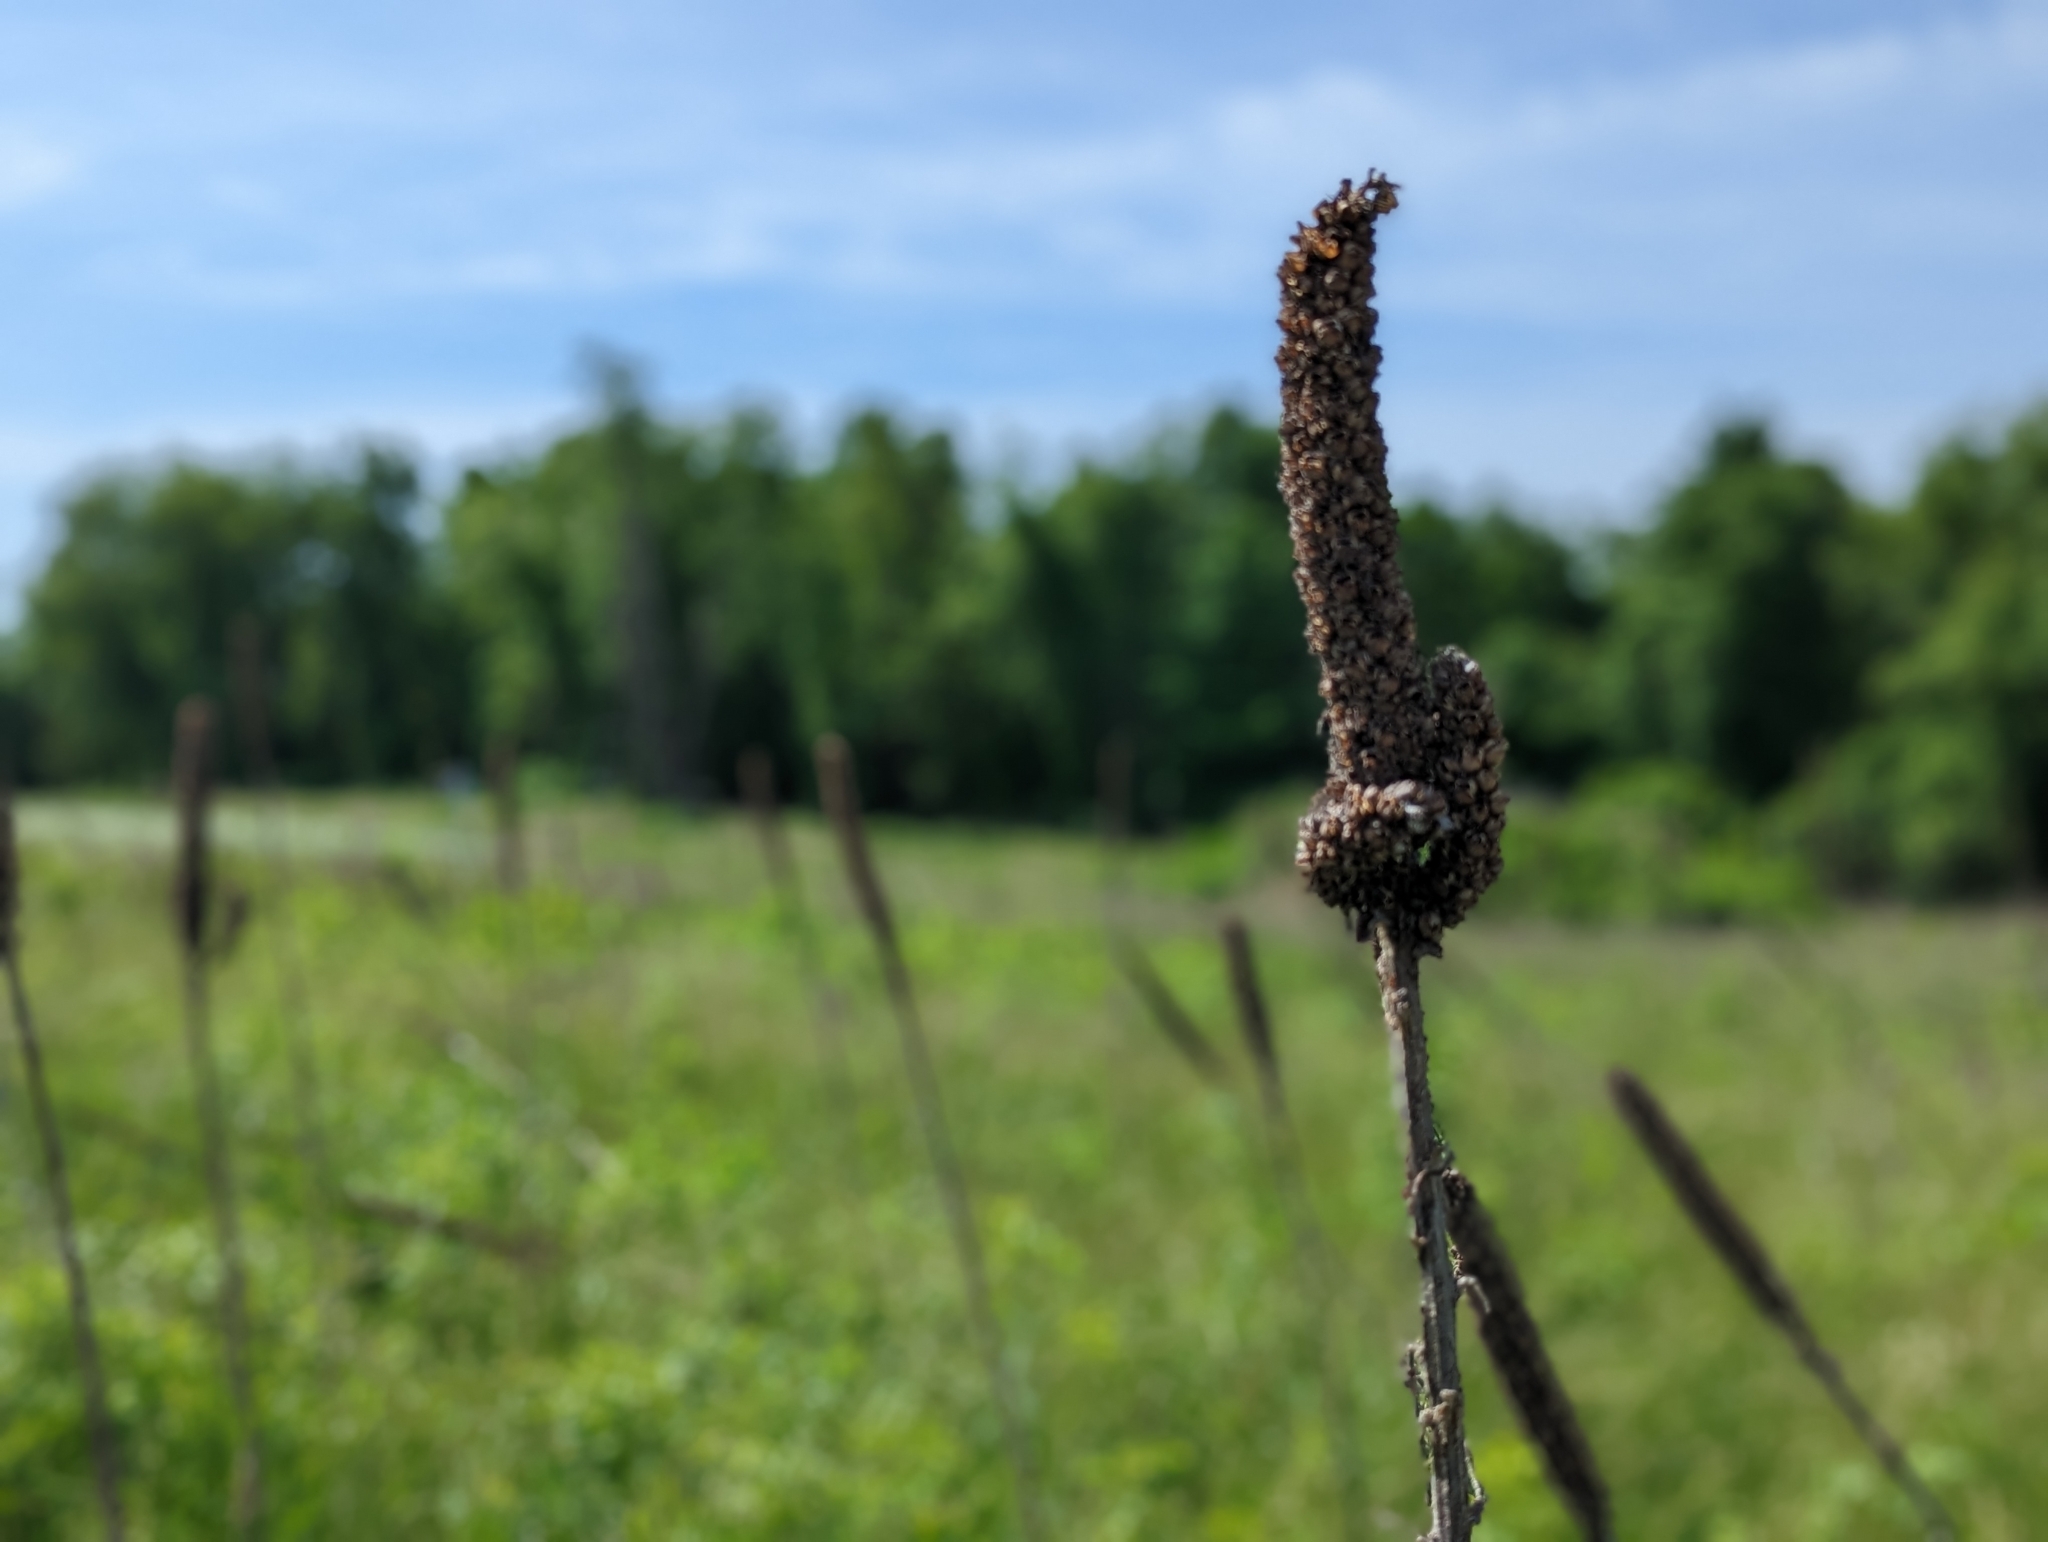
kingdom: Plantae
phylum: Tracheophyta
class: Magnoliopsida
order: Lamiales
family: Scrophulariaceae
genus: Verbascum
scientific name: Verbascum thapsus
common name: Common mullein
